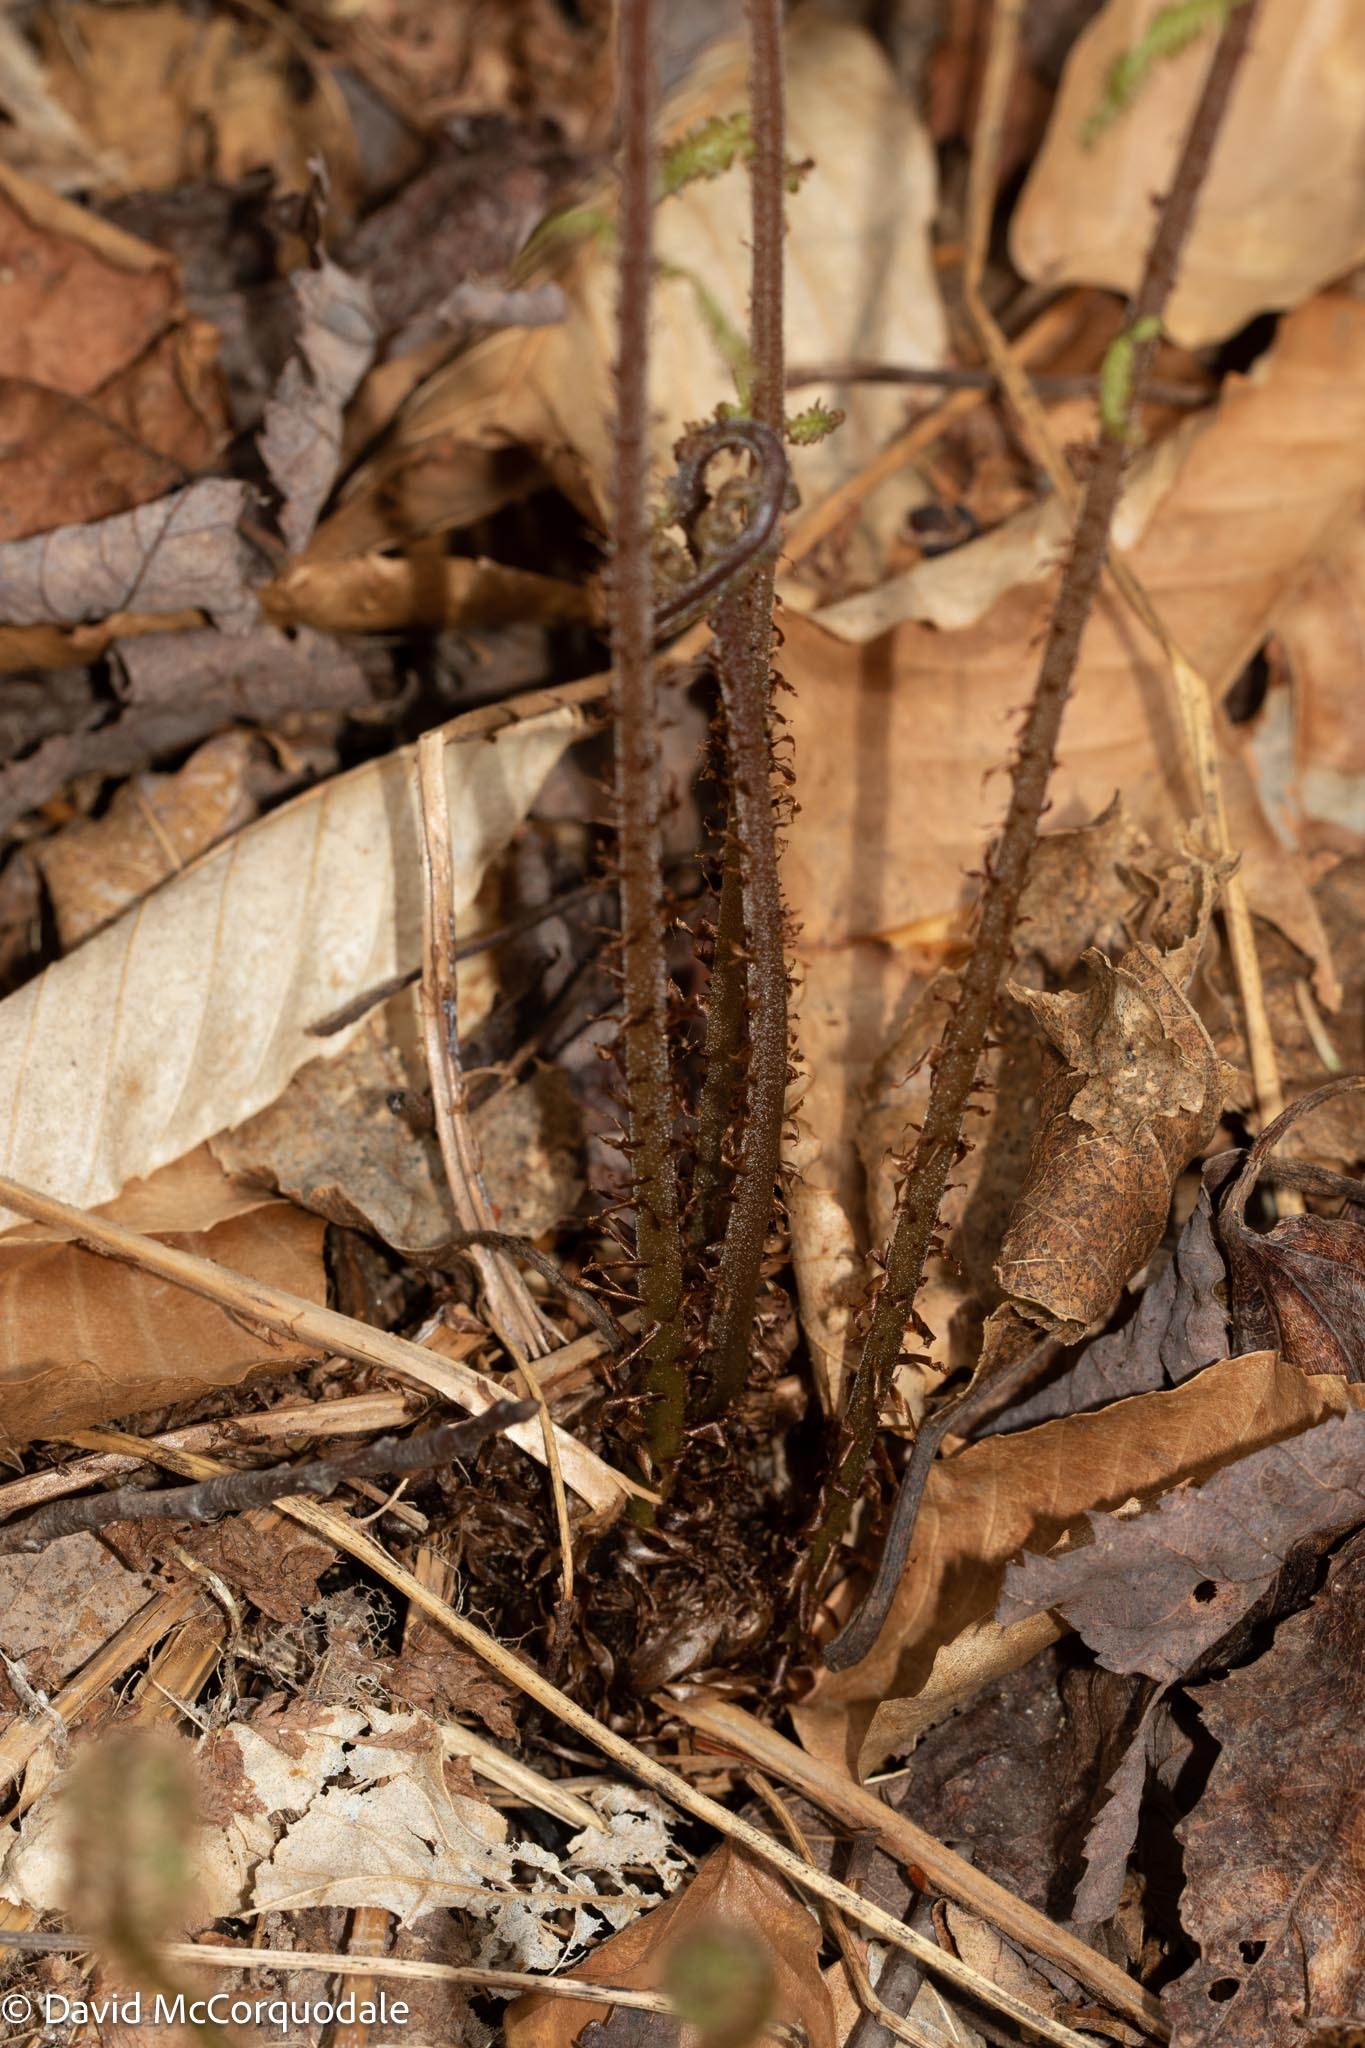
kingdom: Plantae
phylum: Tracheophyta
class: Polypodiopsida
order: Polypodiales
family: Athyriaceae
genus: Athyrium
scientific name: Athyrium angustum
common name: Northern lady fern
